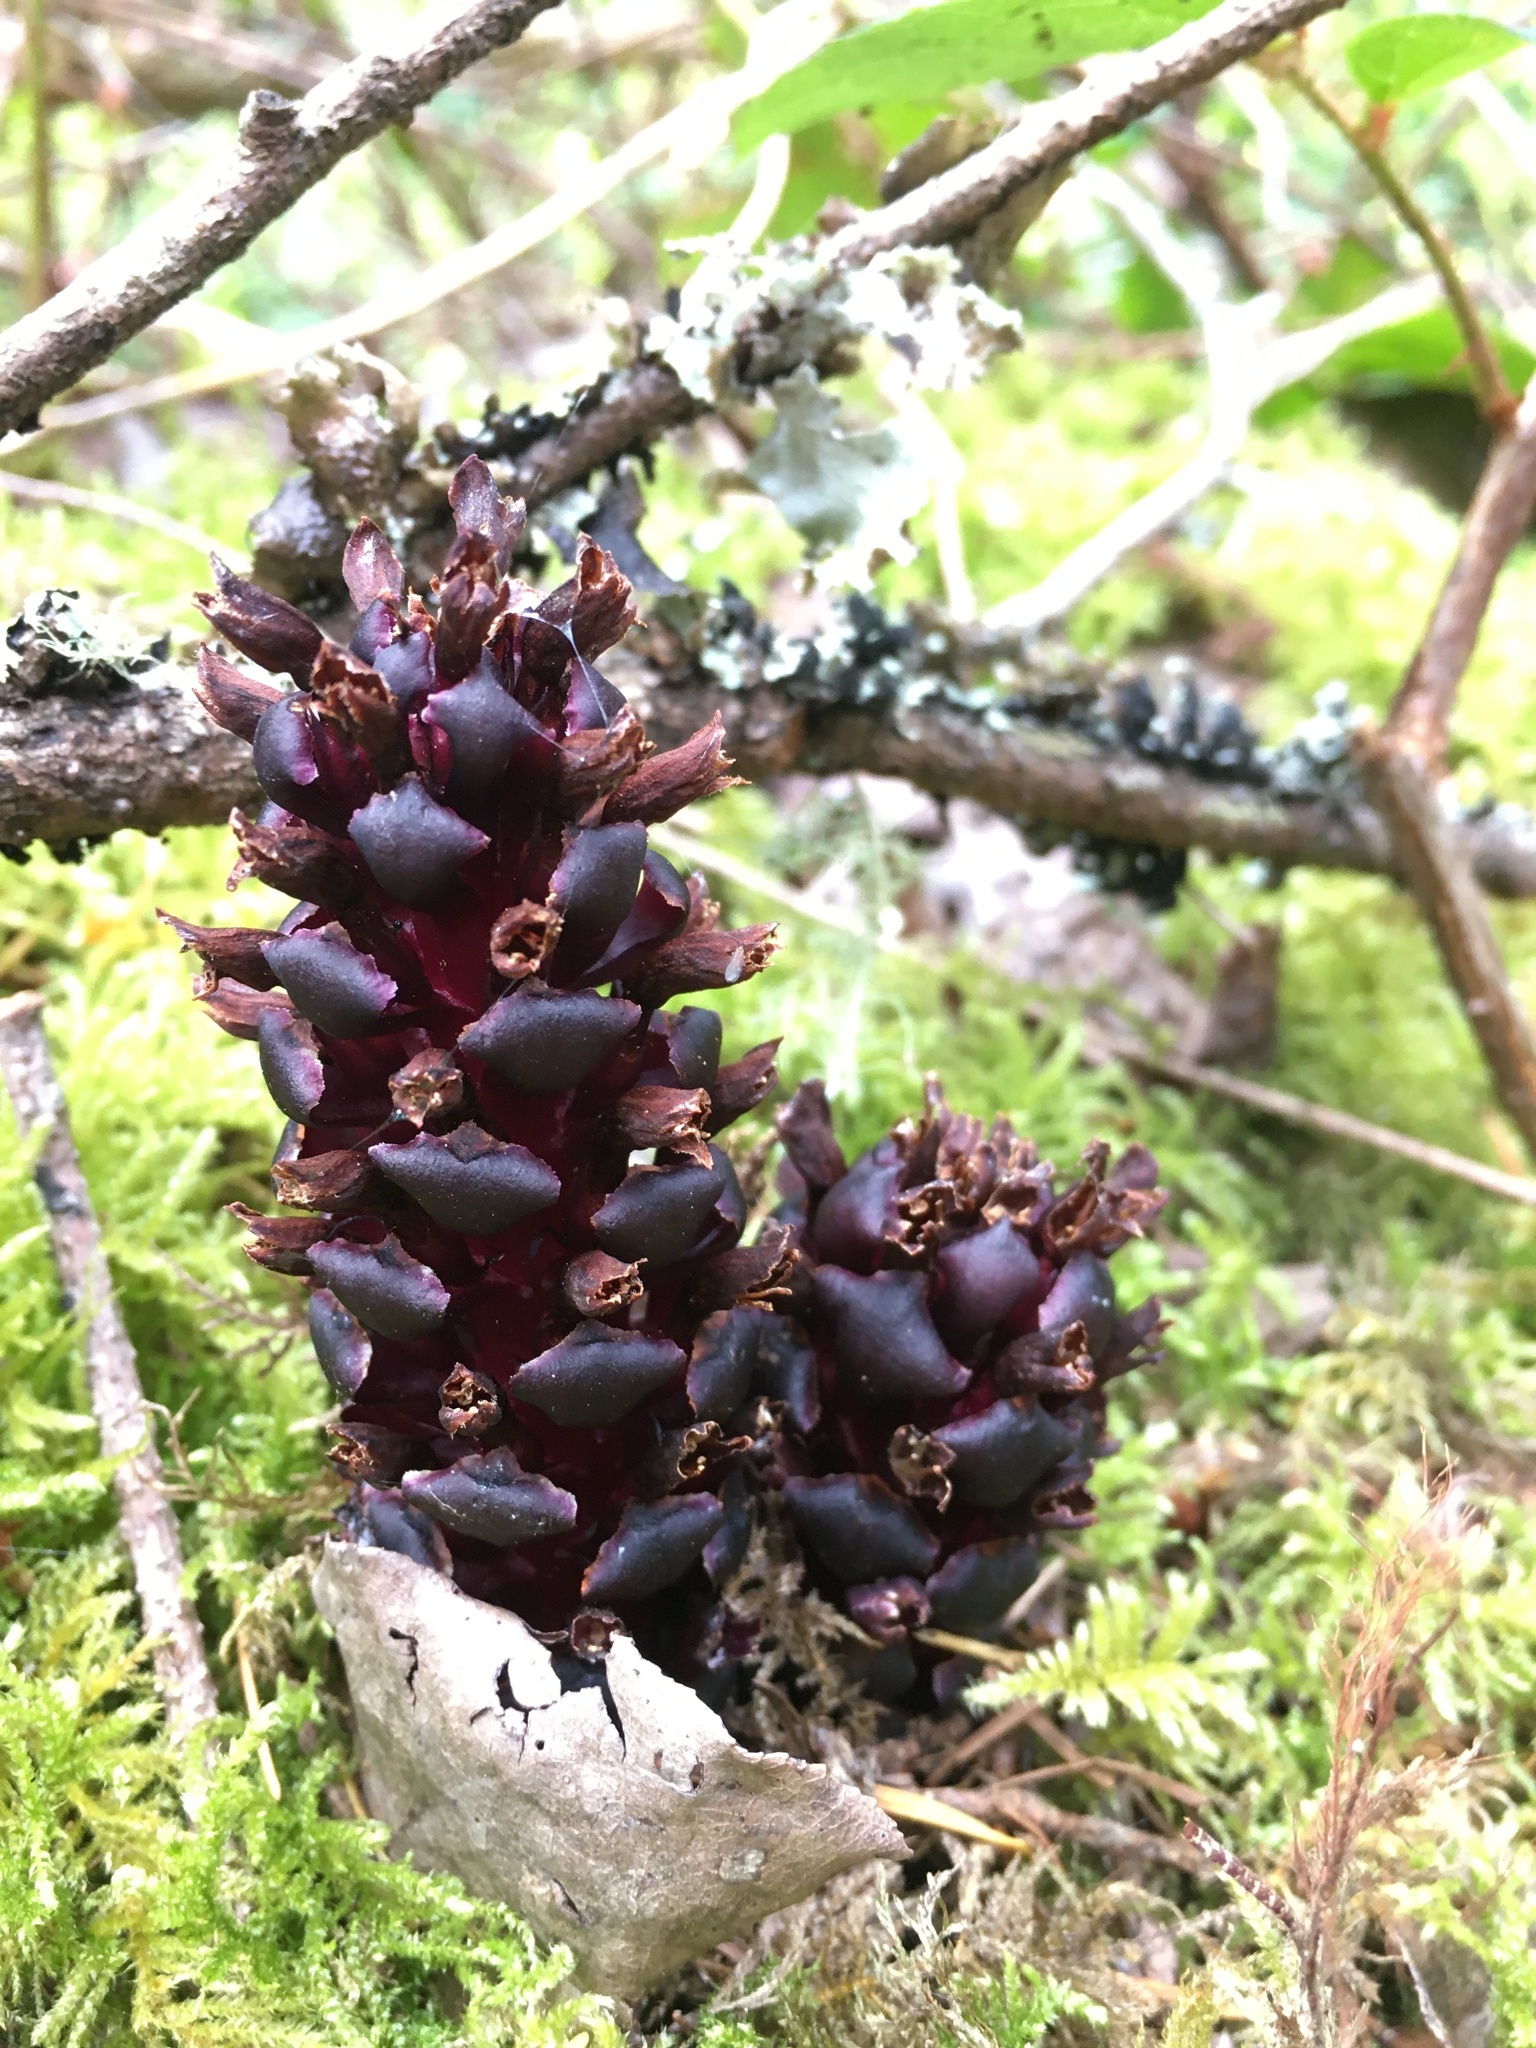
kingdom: Plantae
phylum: Tracheophyta
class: Magnoliopsida
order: Lamiales
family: Orobanchaceae
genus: Kopsiopsis
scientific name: Kopsiopsis hookeri
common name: Hooker's groundcone
